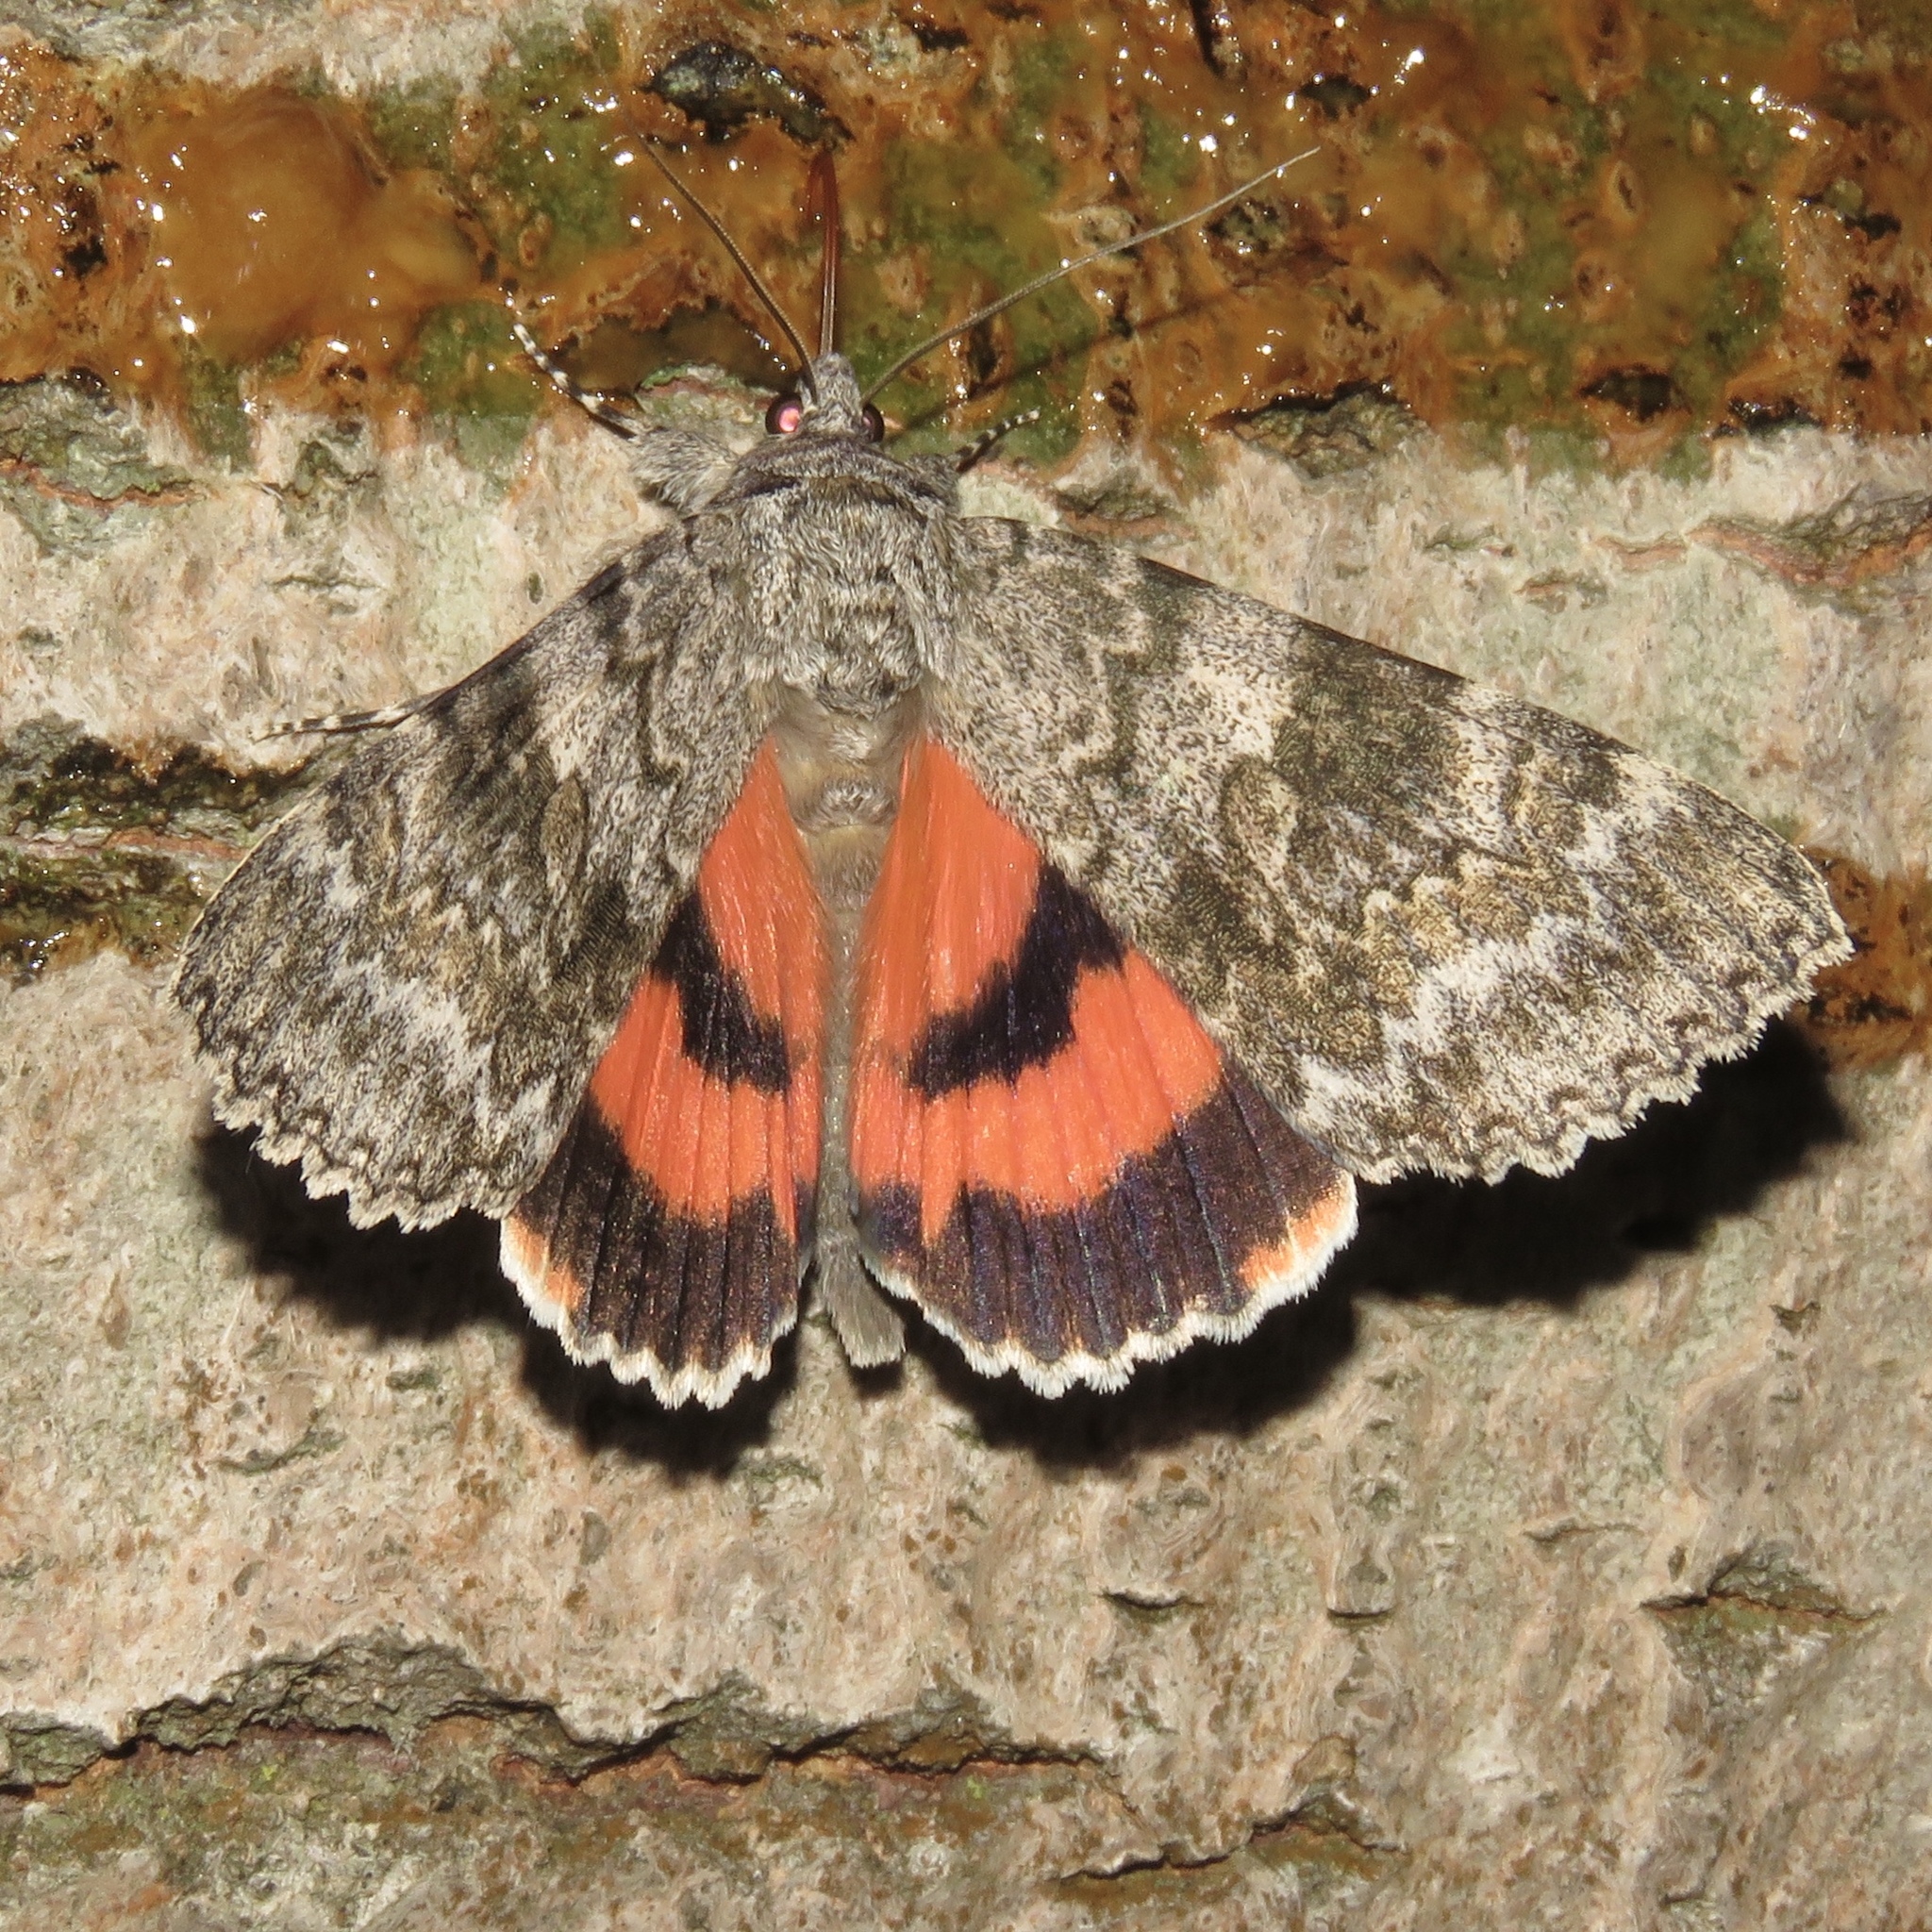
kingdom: Animalia
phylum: Arthropoda
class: Insecta
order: Lepidoptera
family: Erebidae
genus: Catocala
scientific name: Catocala semirelicta
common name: Semirelict underwing moth
